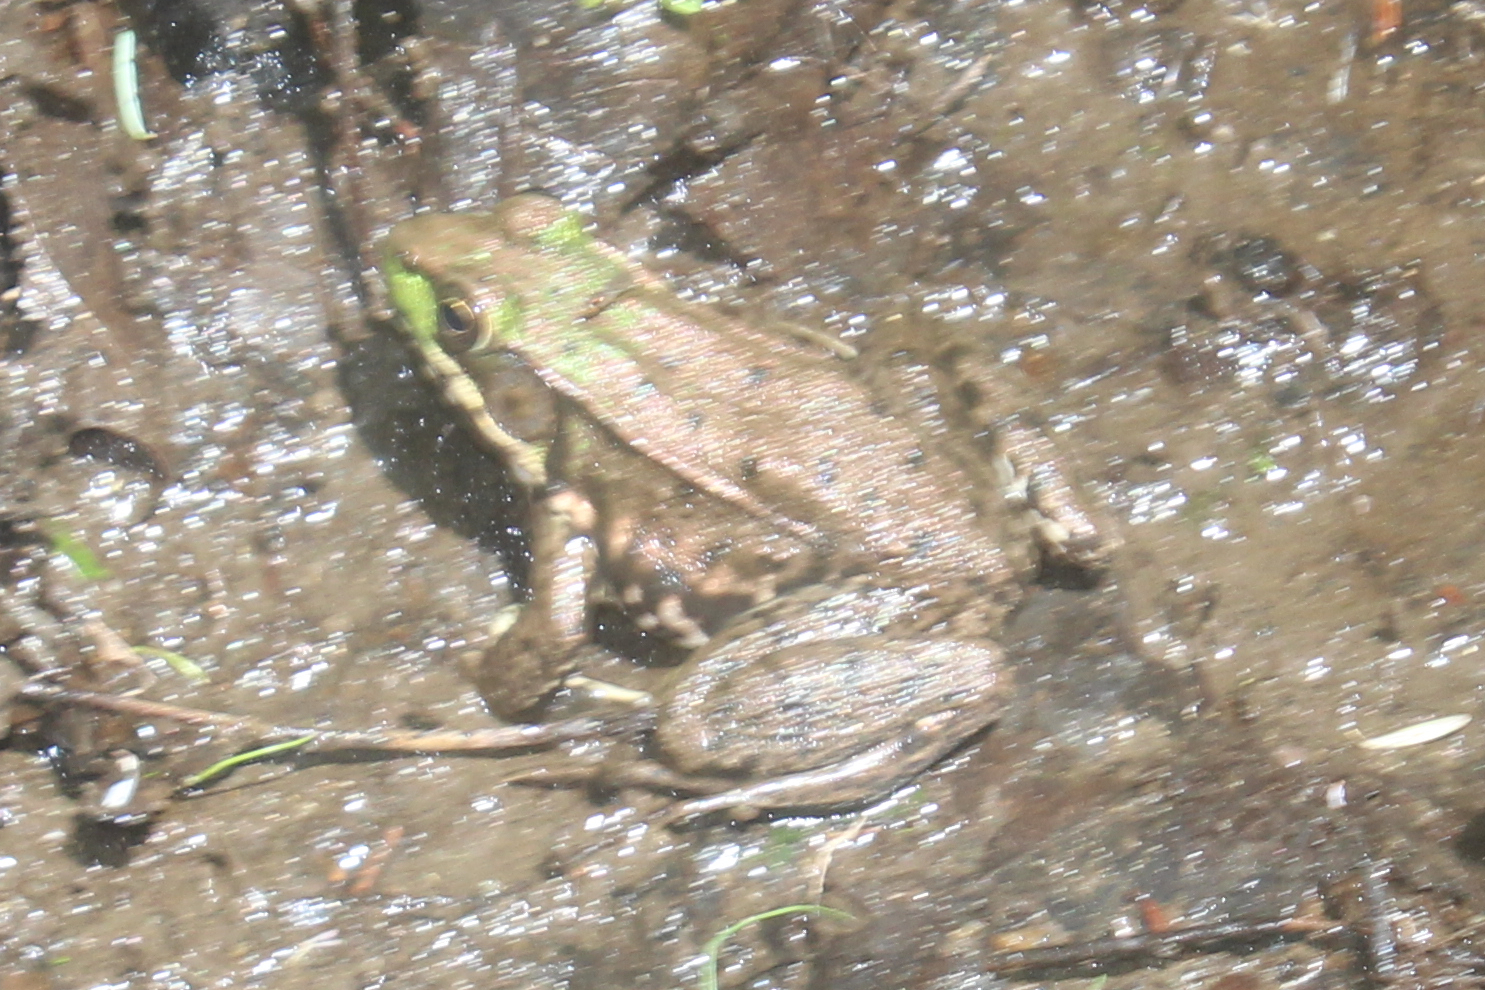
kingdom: Animalia
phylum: Chordata
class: Amphibia
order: Anura
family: Ranidae
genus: Lithobates
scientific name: Lithobates clamitans
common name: Green frog
